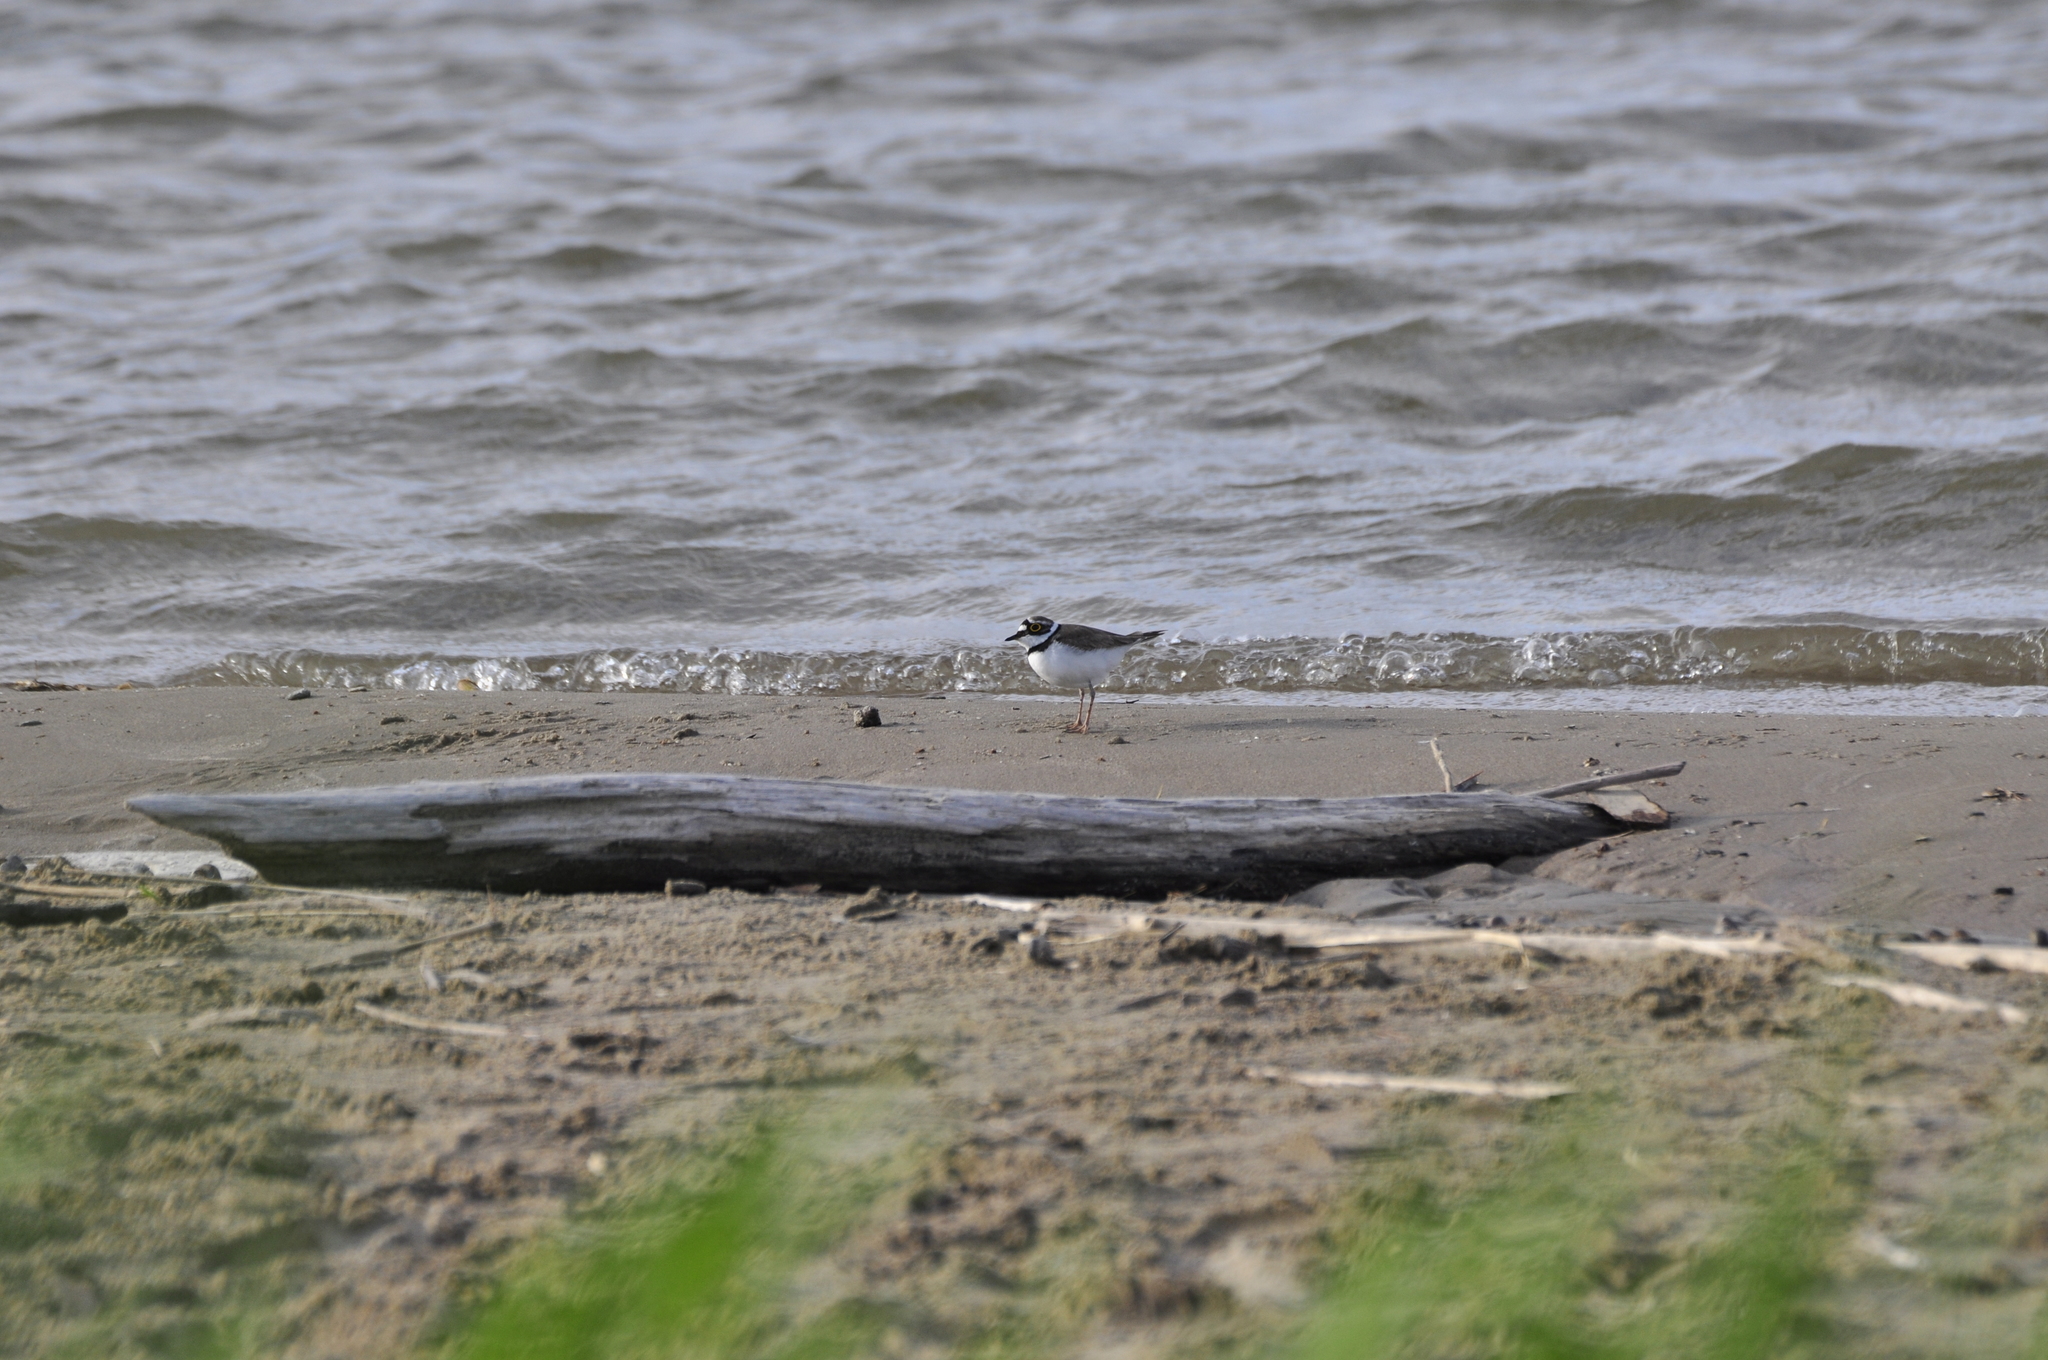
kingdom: Animalia
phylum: Chordata
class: Aves
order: Charadriiformes
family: Charadriidae
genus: Charadrius
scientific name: Charadrius dubius
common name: Little ringed plover
